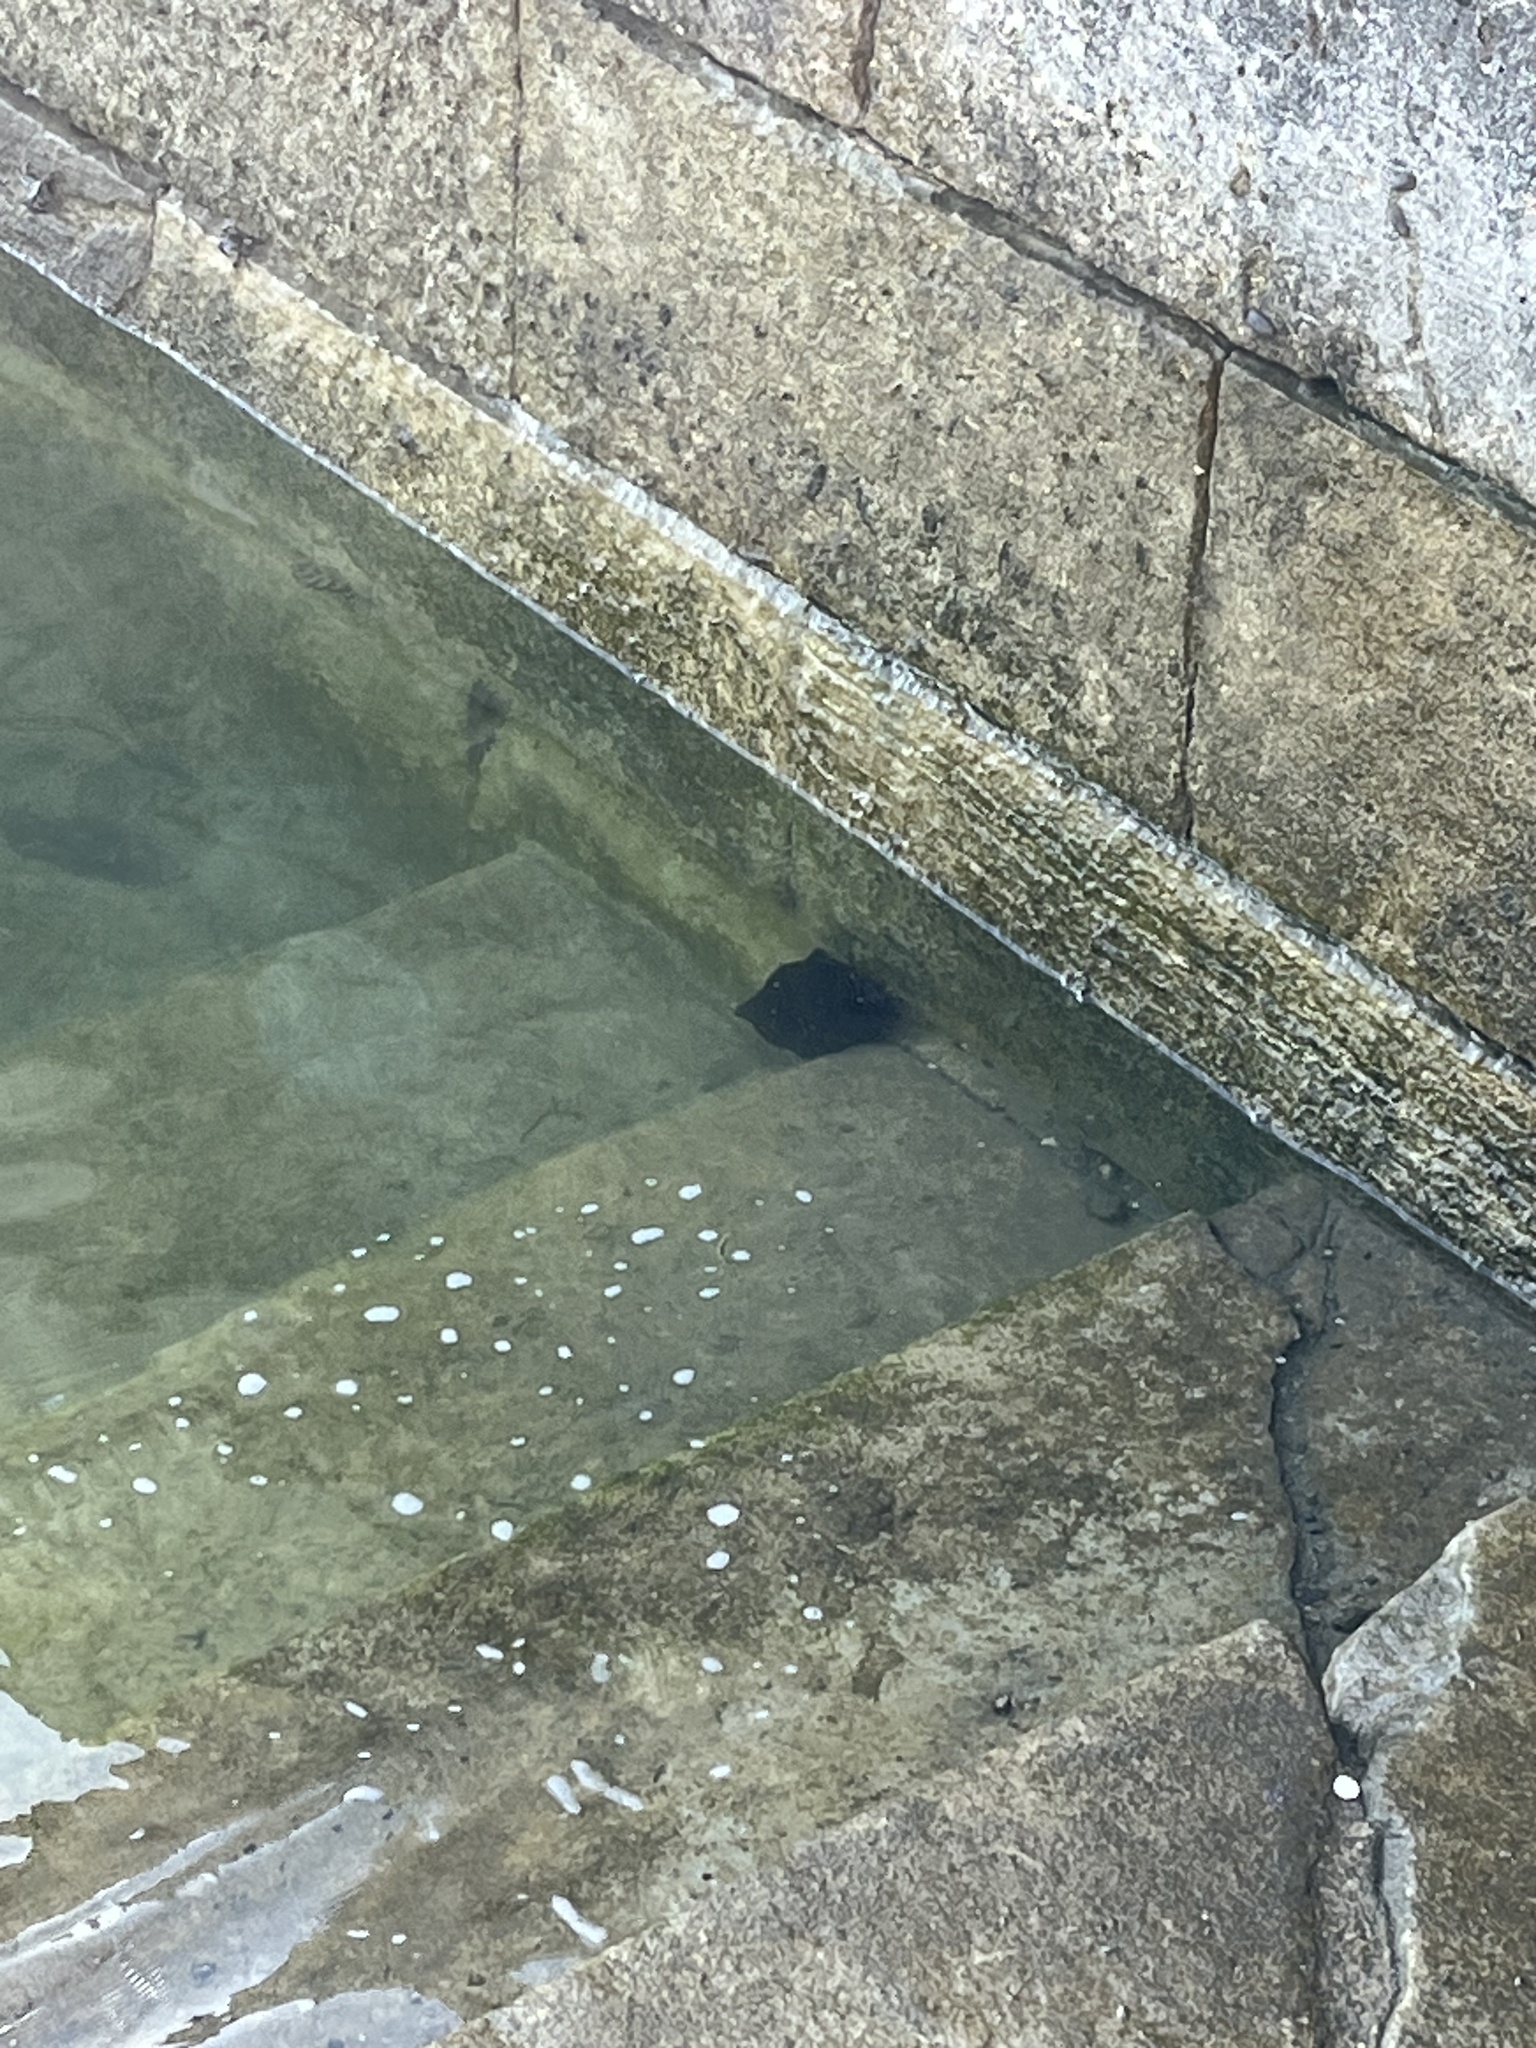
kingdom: Animalia
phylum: Mollusca
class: Gastropoda
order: Aplysiida
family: Aplysiidae
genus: Aplysia
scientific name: Aplysia fasciata
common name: Banded sea hare
